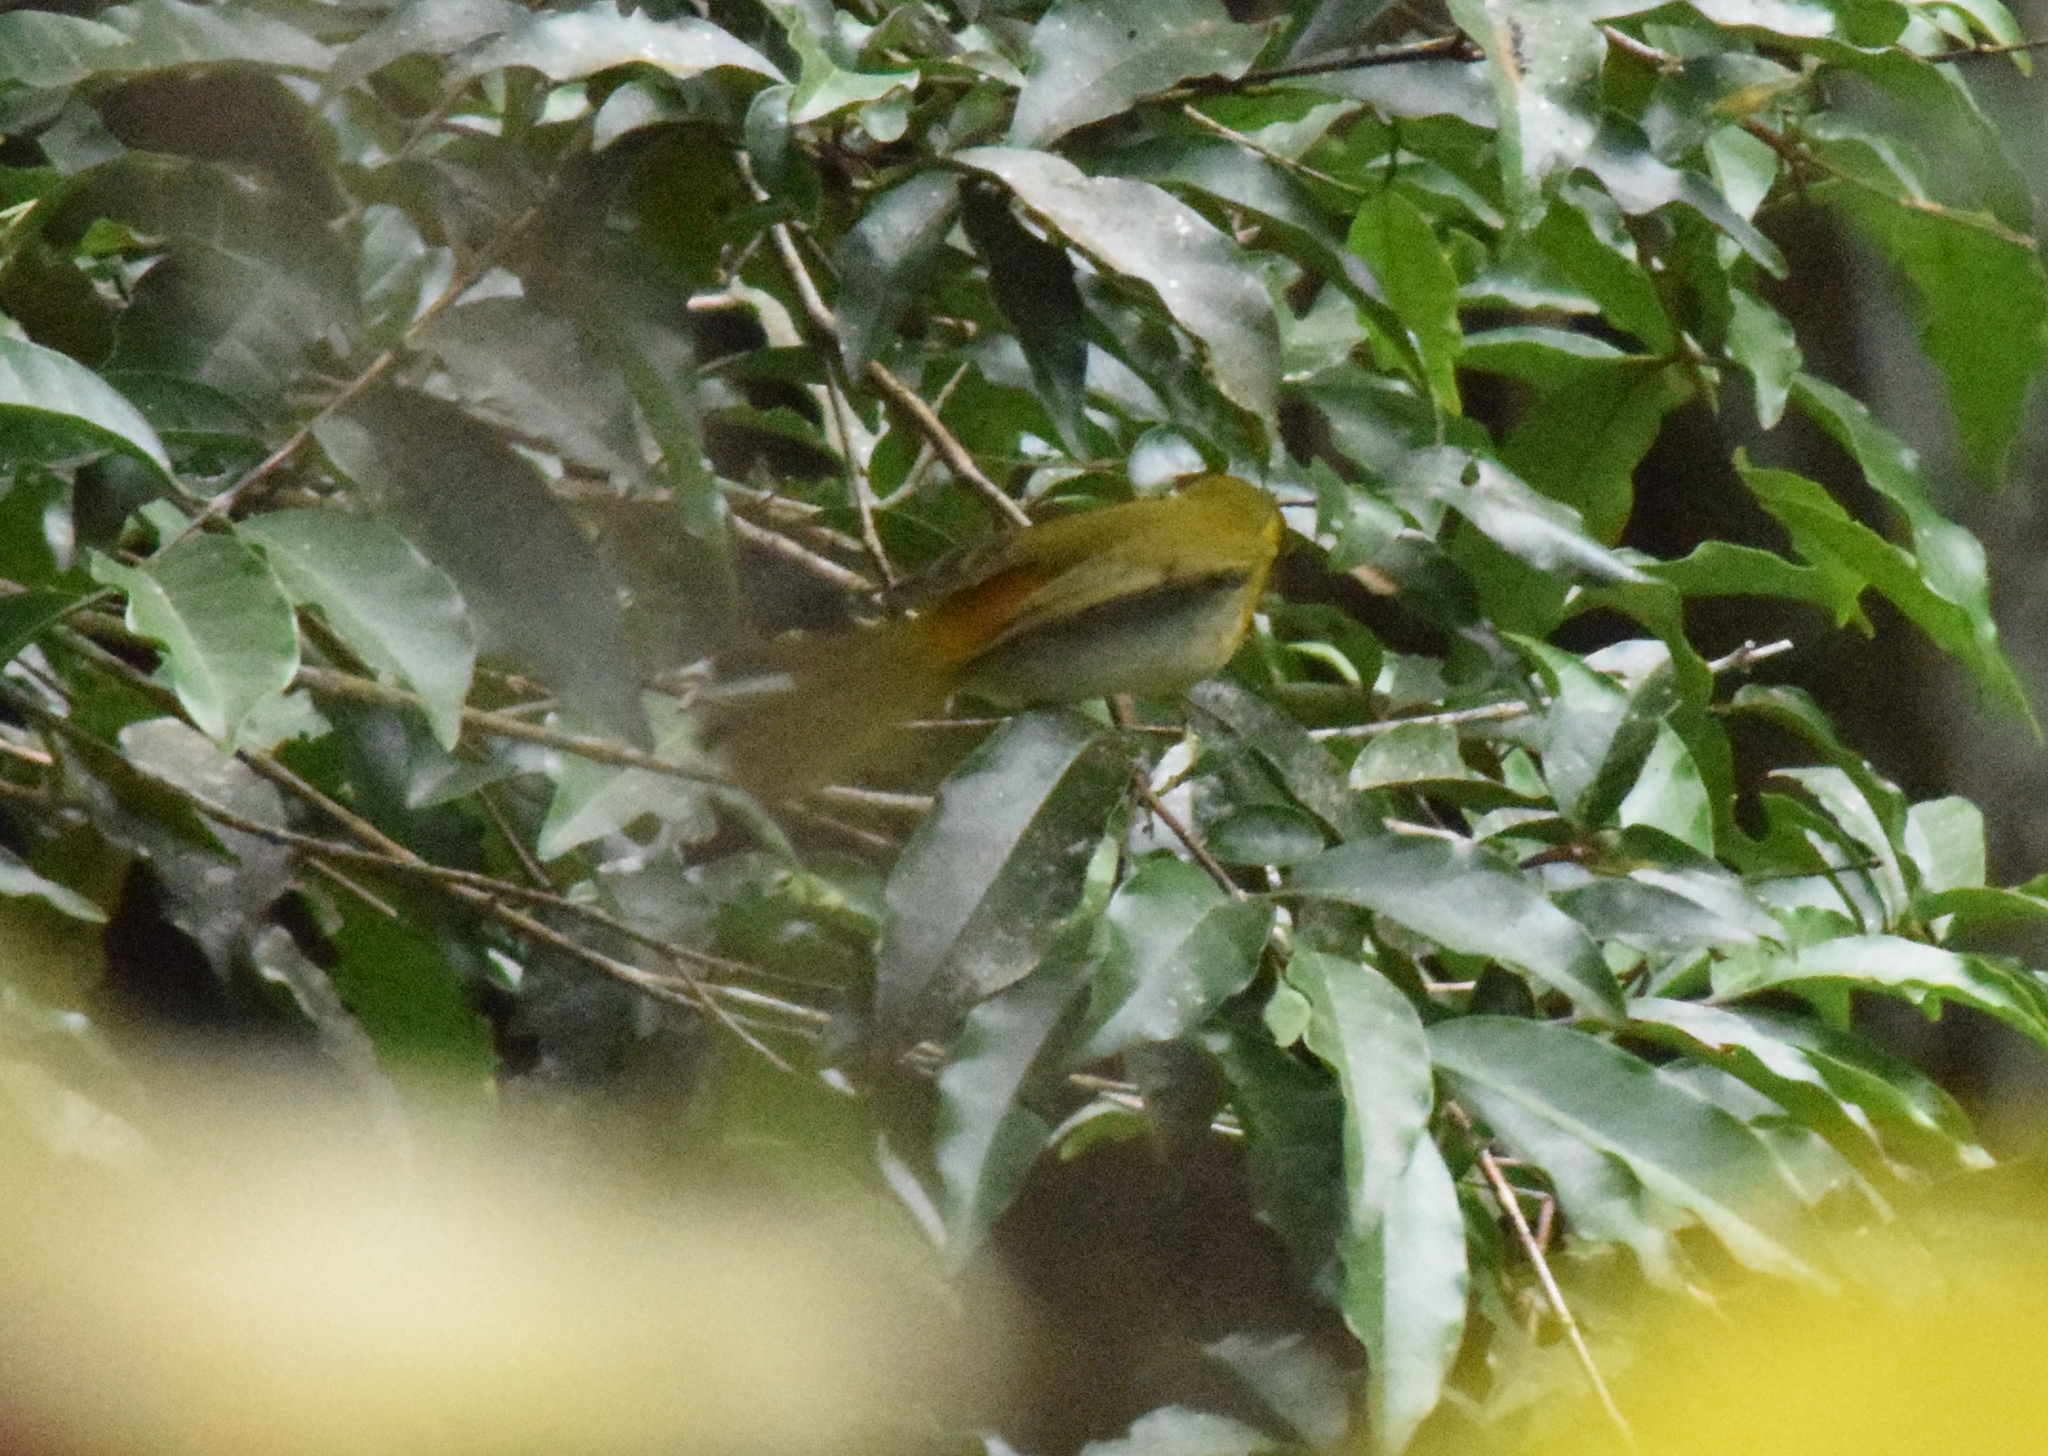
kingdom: Animalia
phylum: Chordata
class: Aves
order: Passeriformes
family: Thraupidae
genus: Hemithraupis
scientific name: Hemithraupis ruficapilla
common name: Rufous-headed tanager
